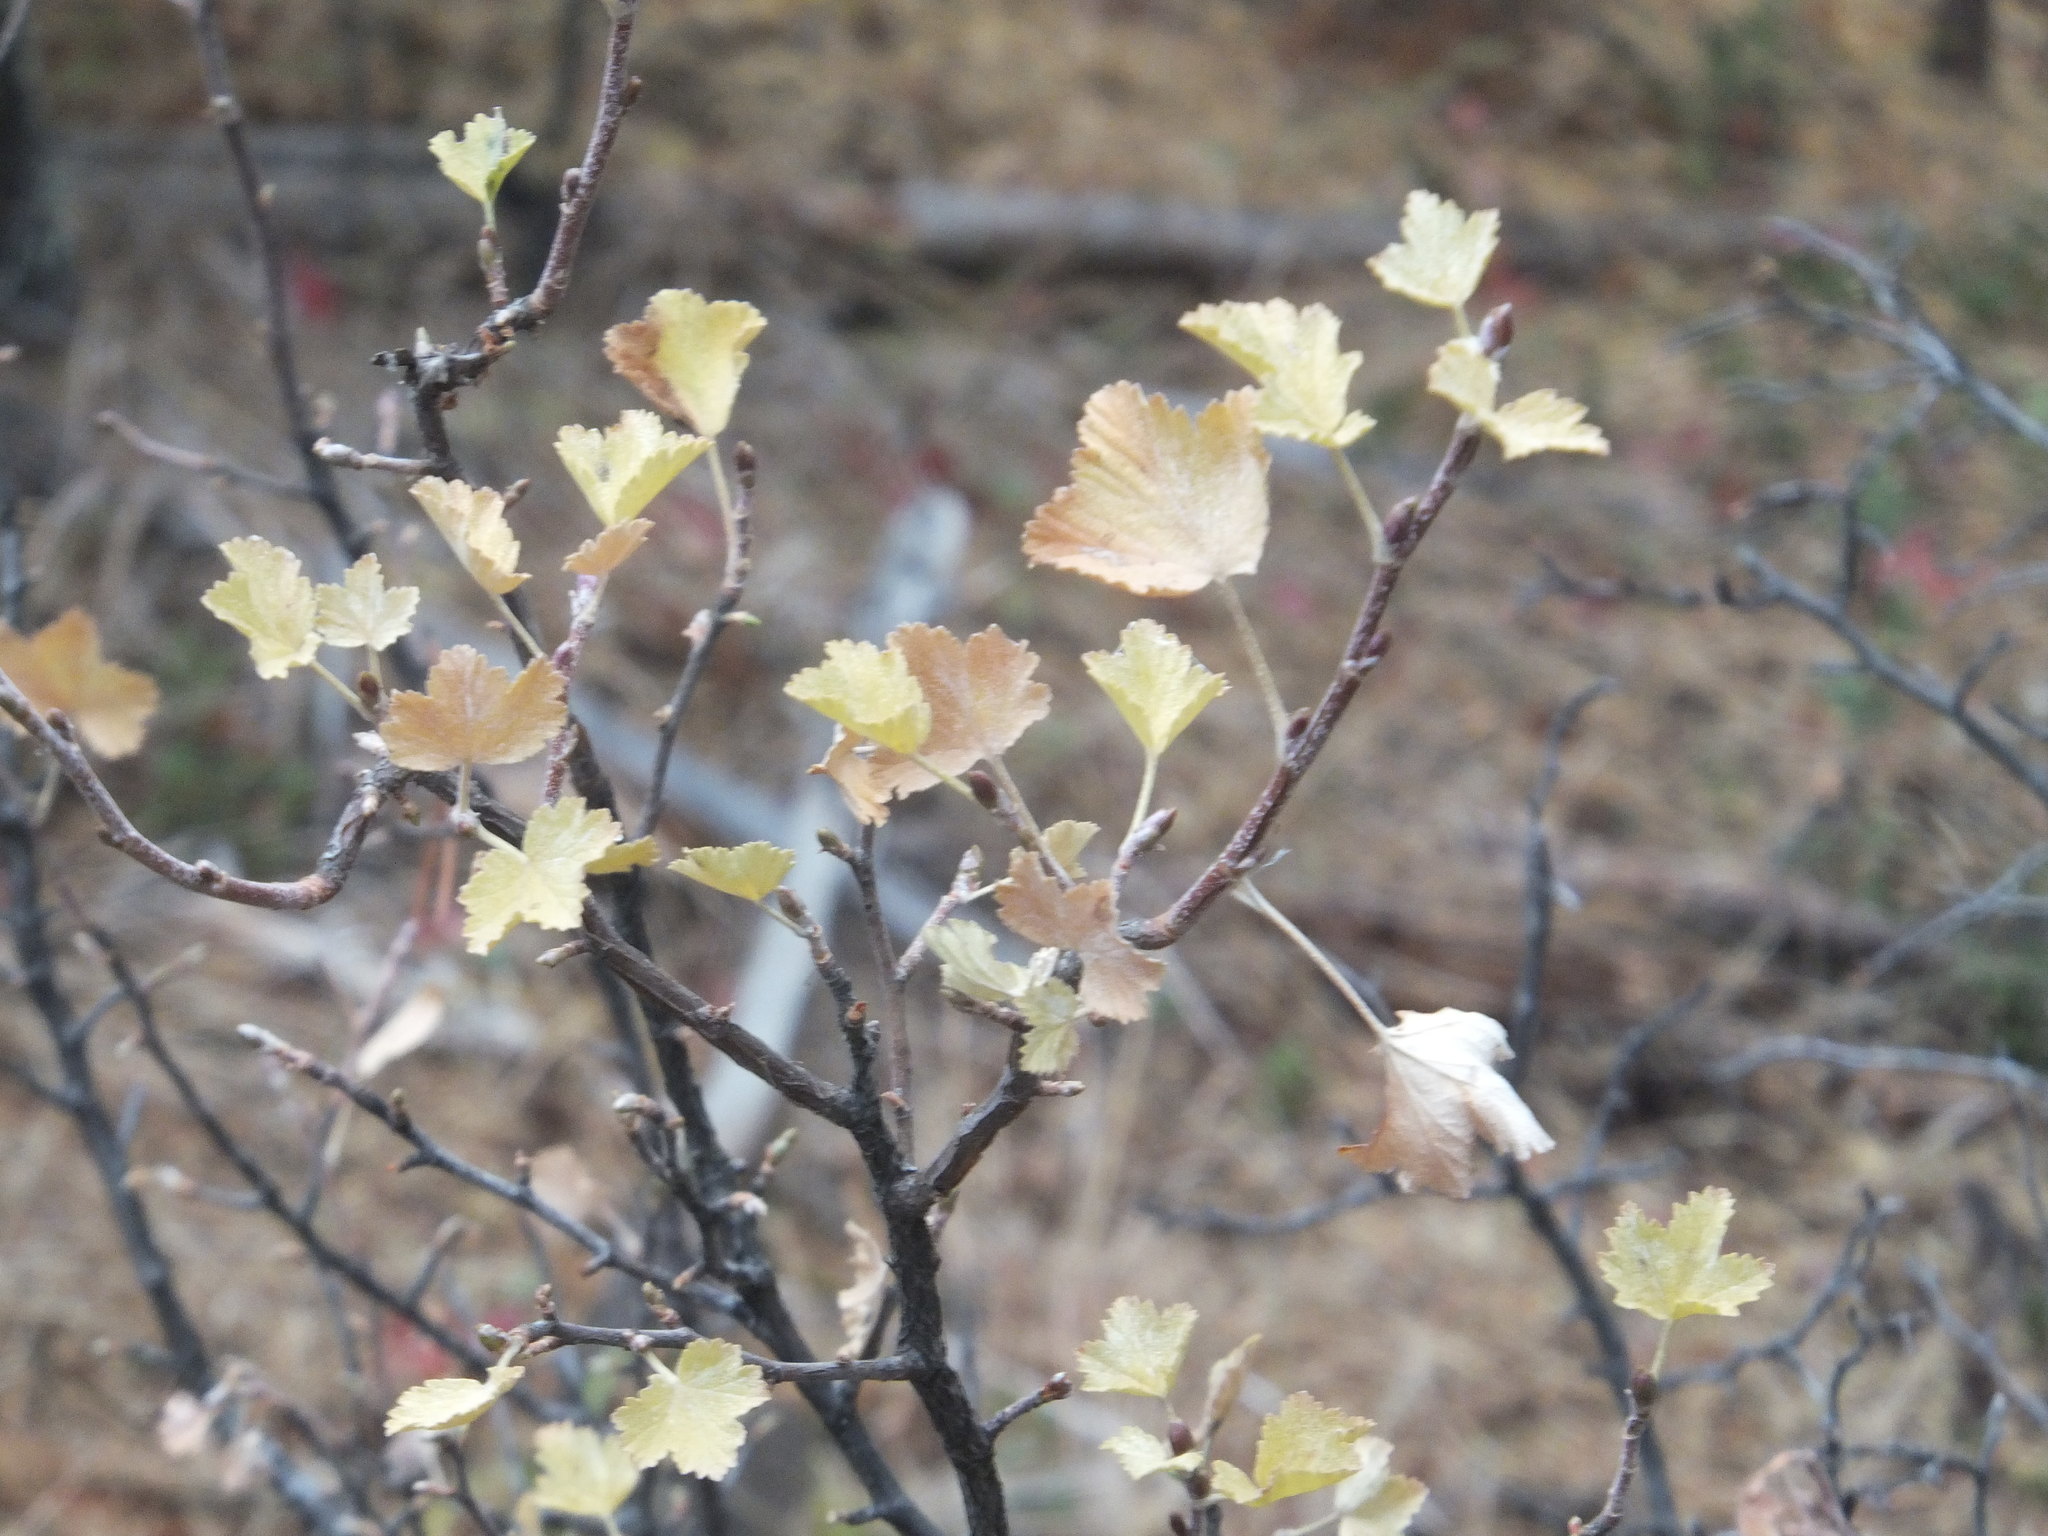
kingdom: Plantae
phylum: Tracheophyta
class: Magnoliopsida
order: Saxifragales
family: Grossulariaceae
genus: Ribes
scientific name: Ribes cereum
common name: Wax currant
